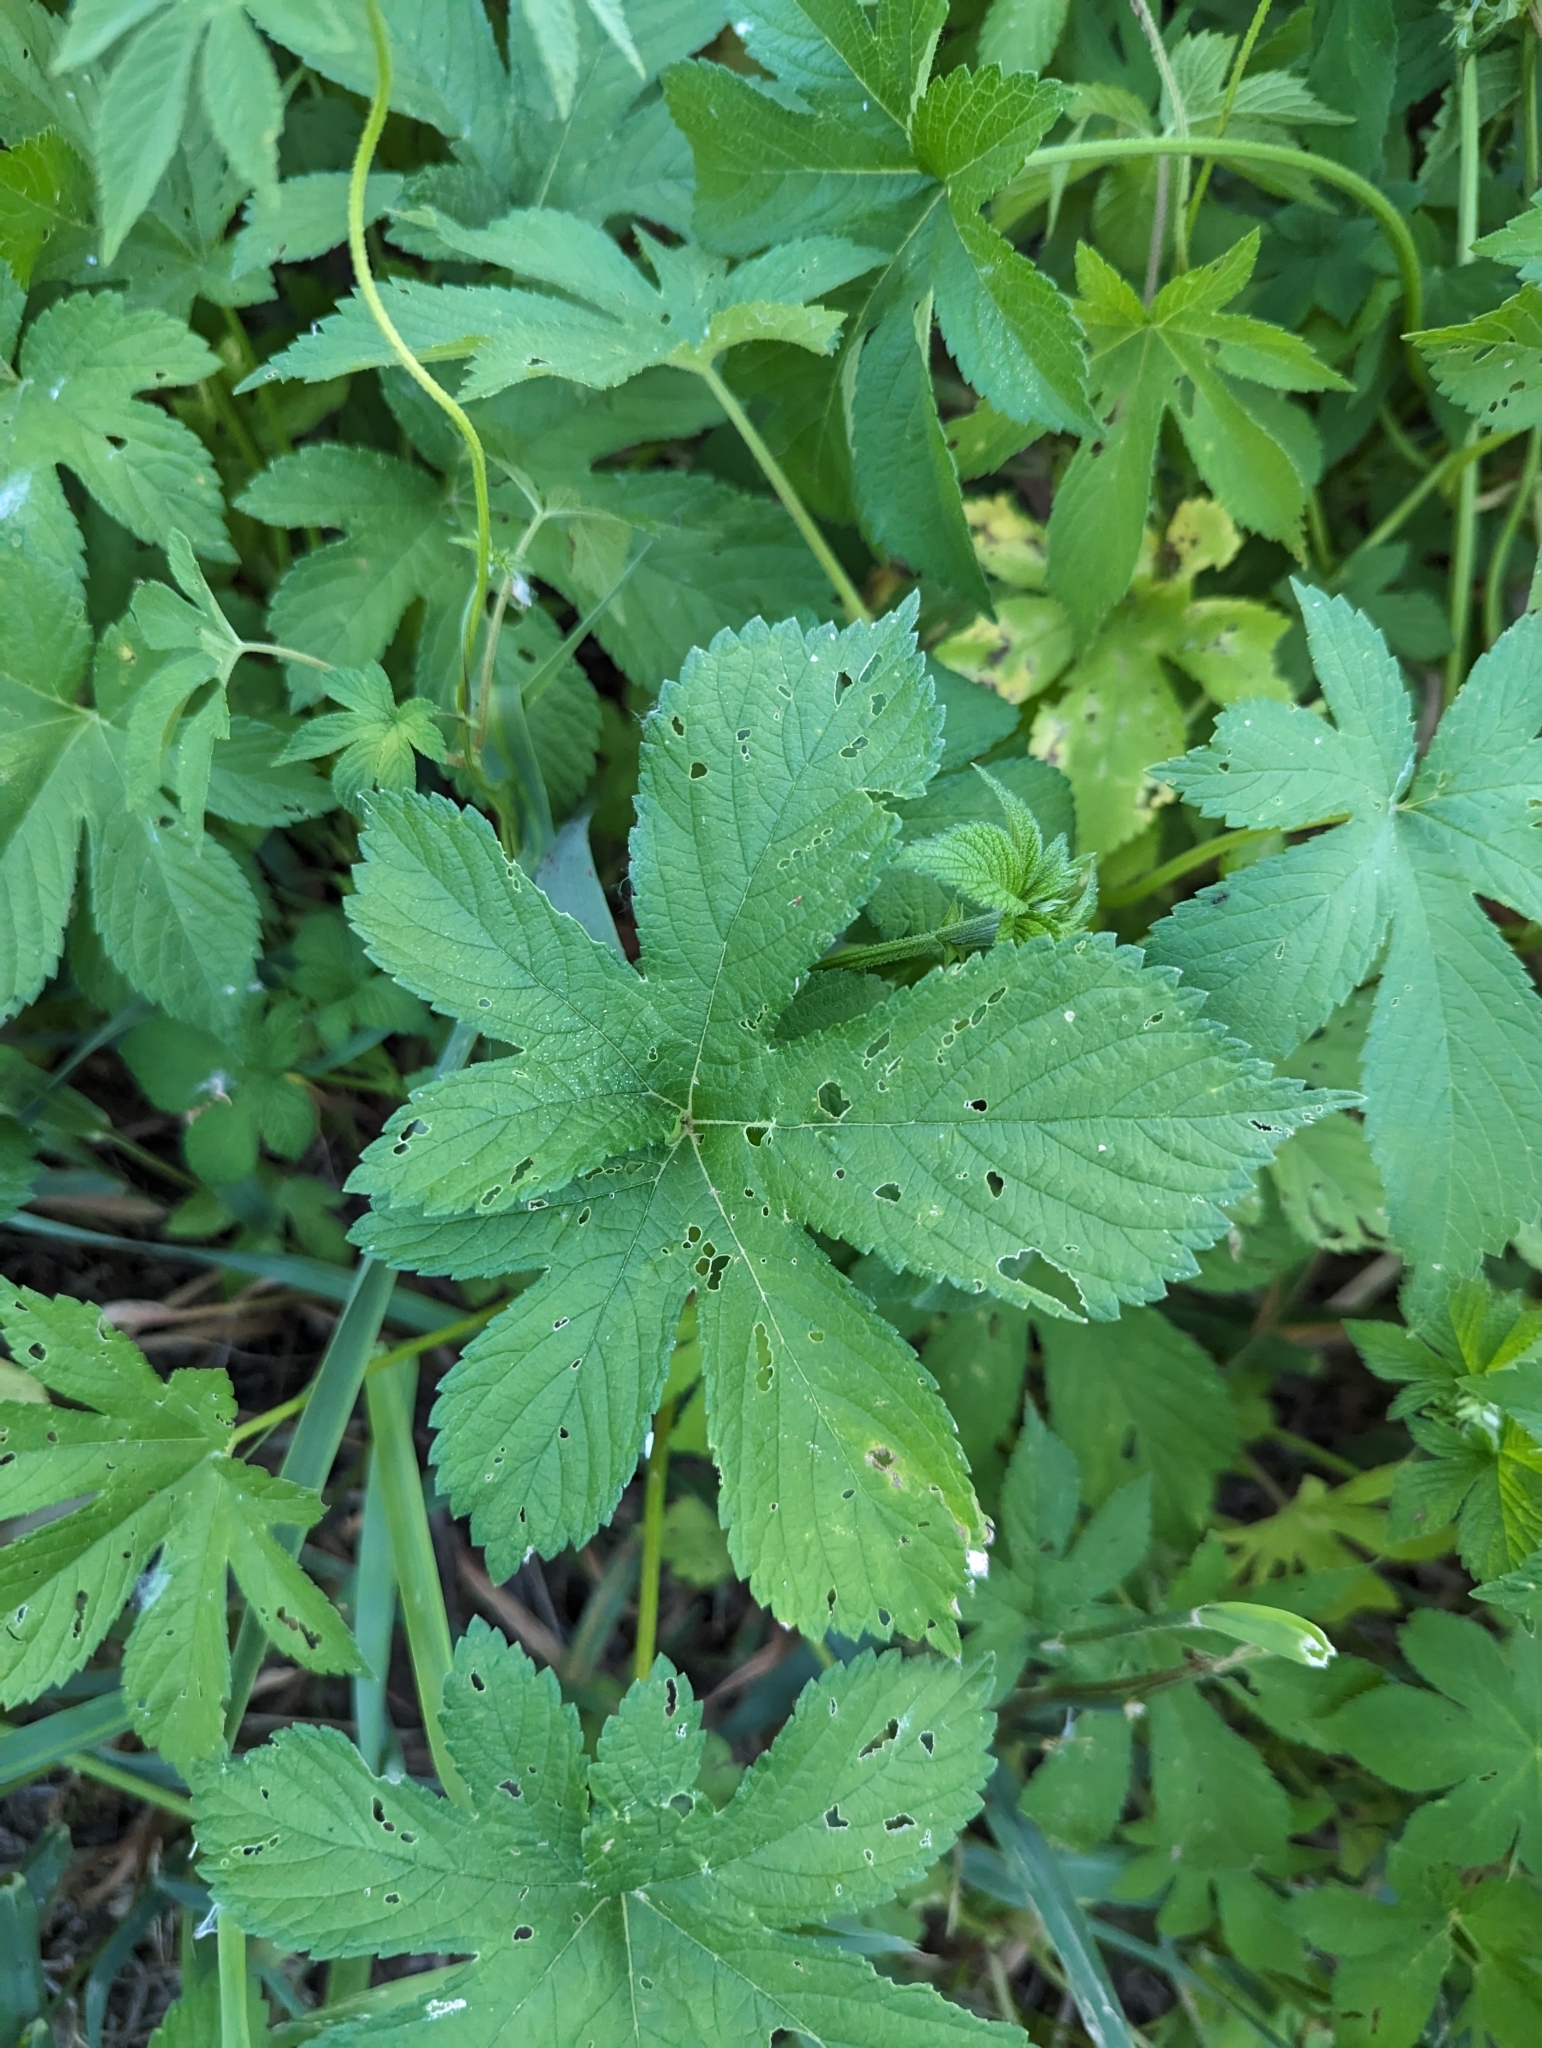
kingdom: Plantae
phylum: Tracheophyta
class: Magnoliopsida
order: Rosales
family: Cannabaceae
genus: Humulus
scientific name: Humulus scandens
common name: Japanese hop
